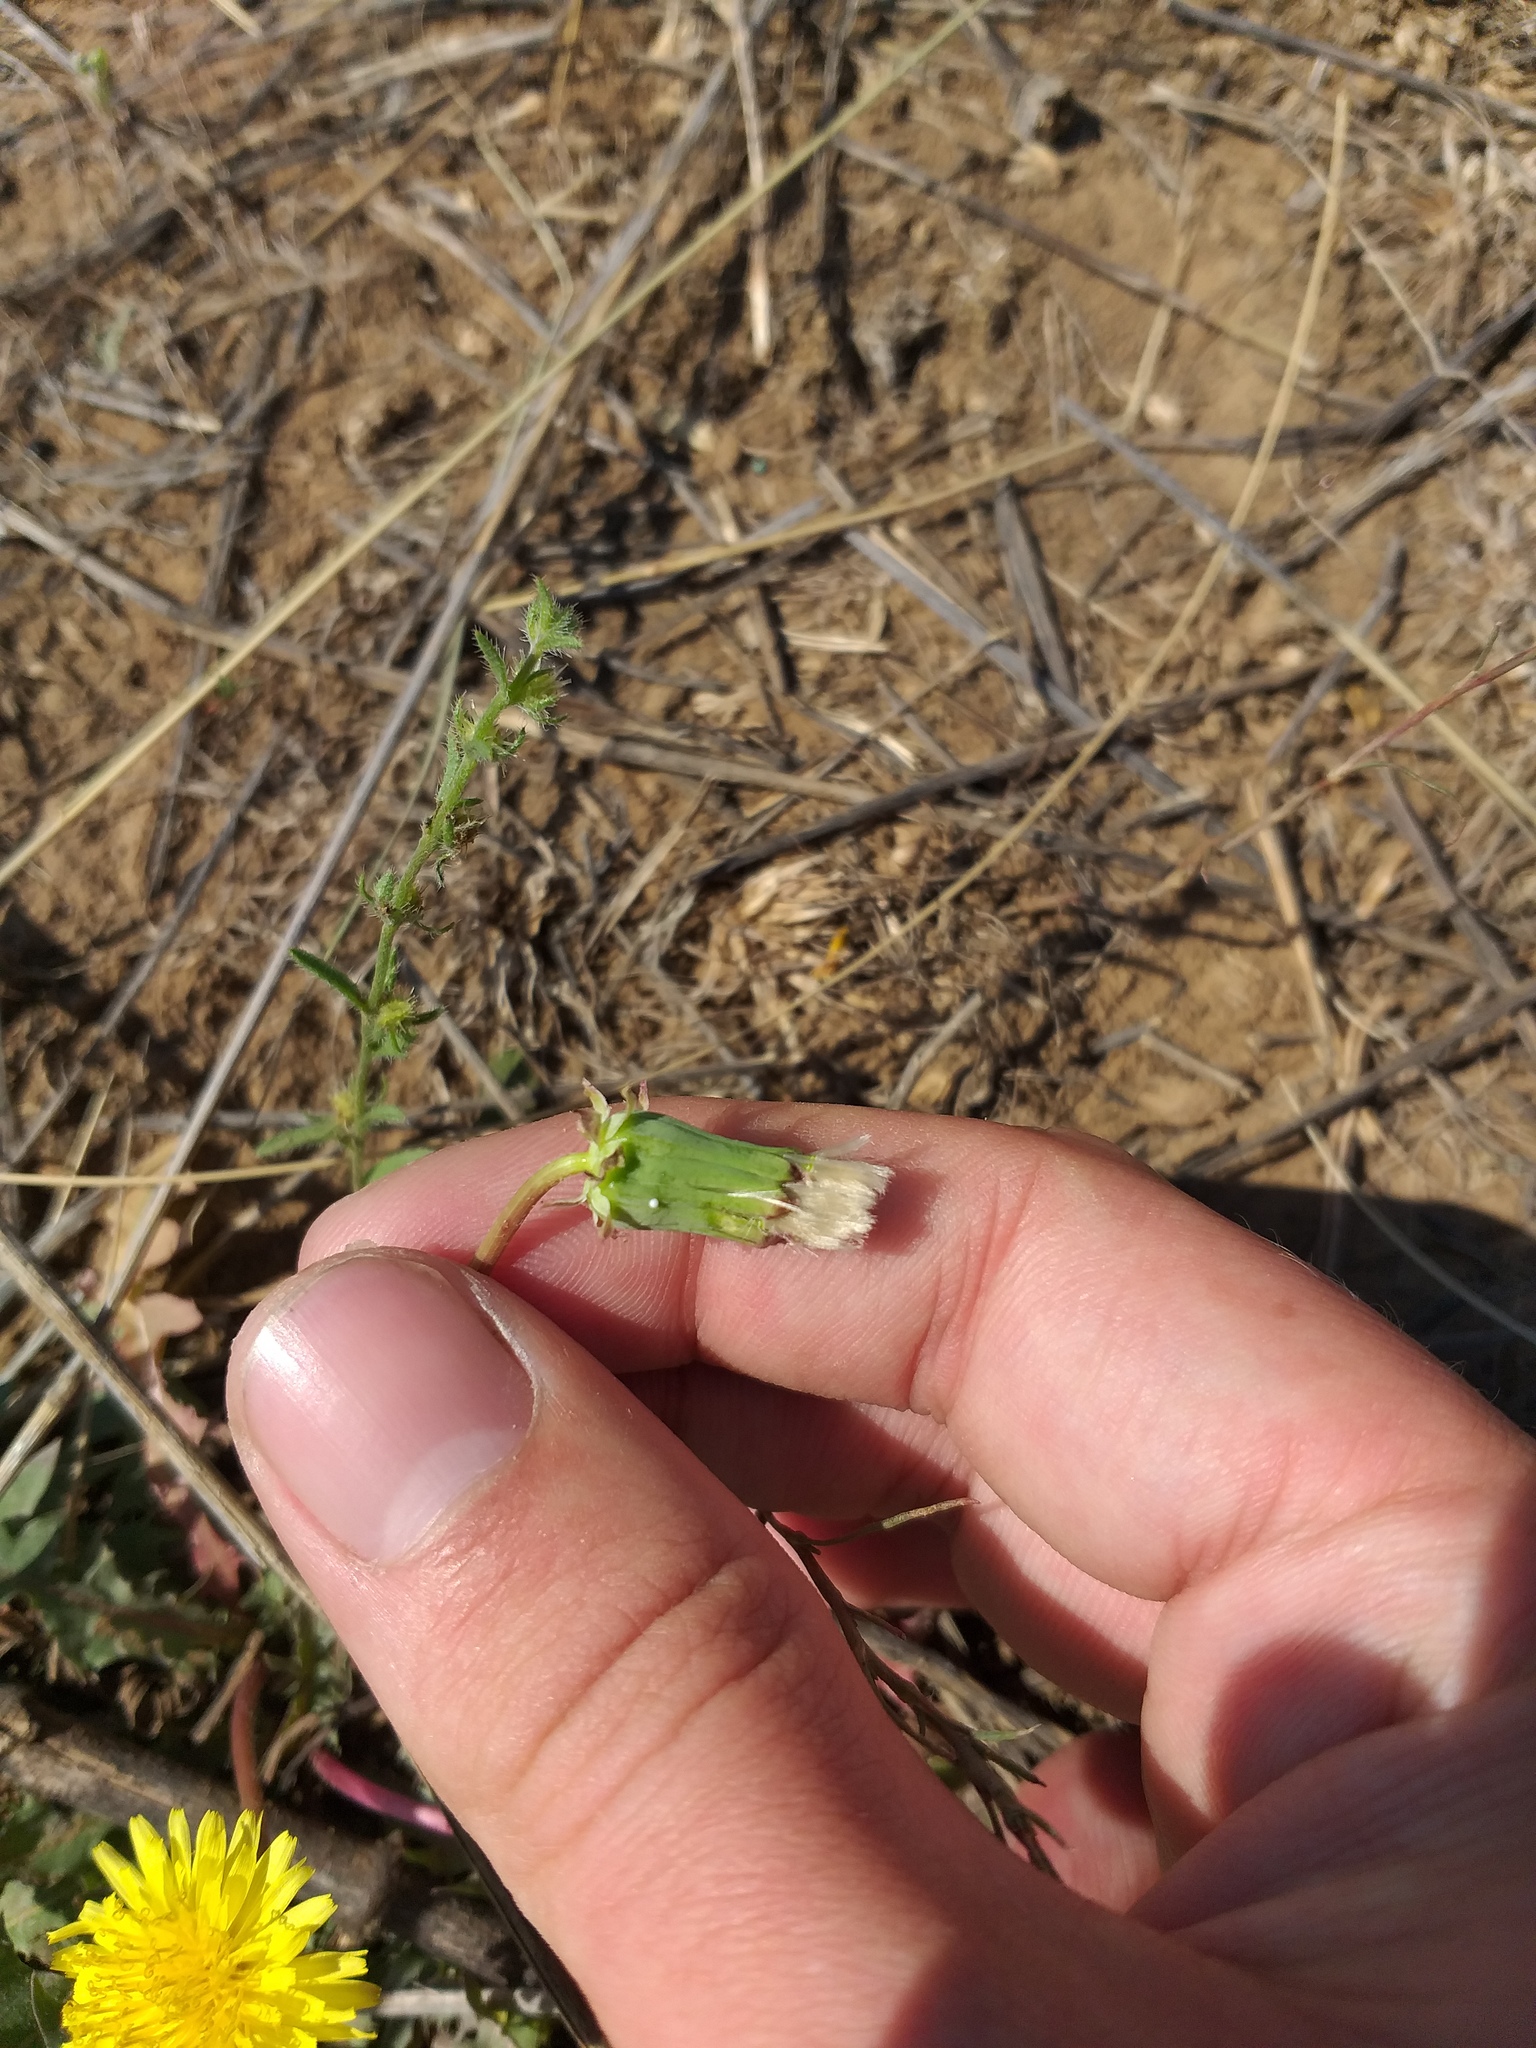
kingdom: Plantae
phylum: Tracheophyta
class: Magnoliopsida
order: Asterales
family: Asteraceae
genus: Taraxacum
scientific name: Taraxacum erythrospermum
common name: Rock dandelion
